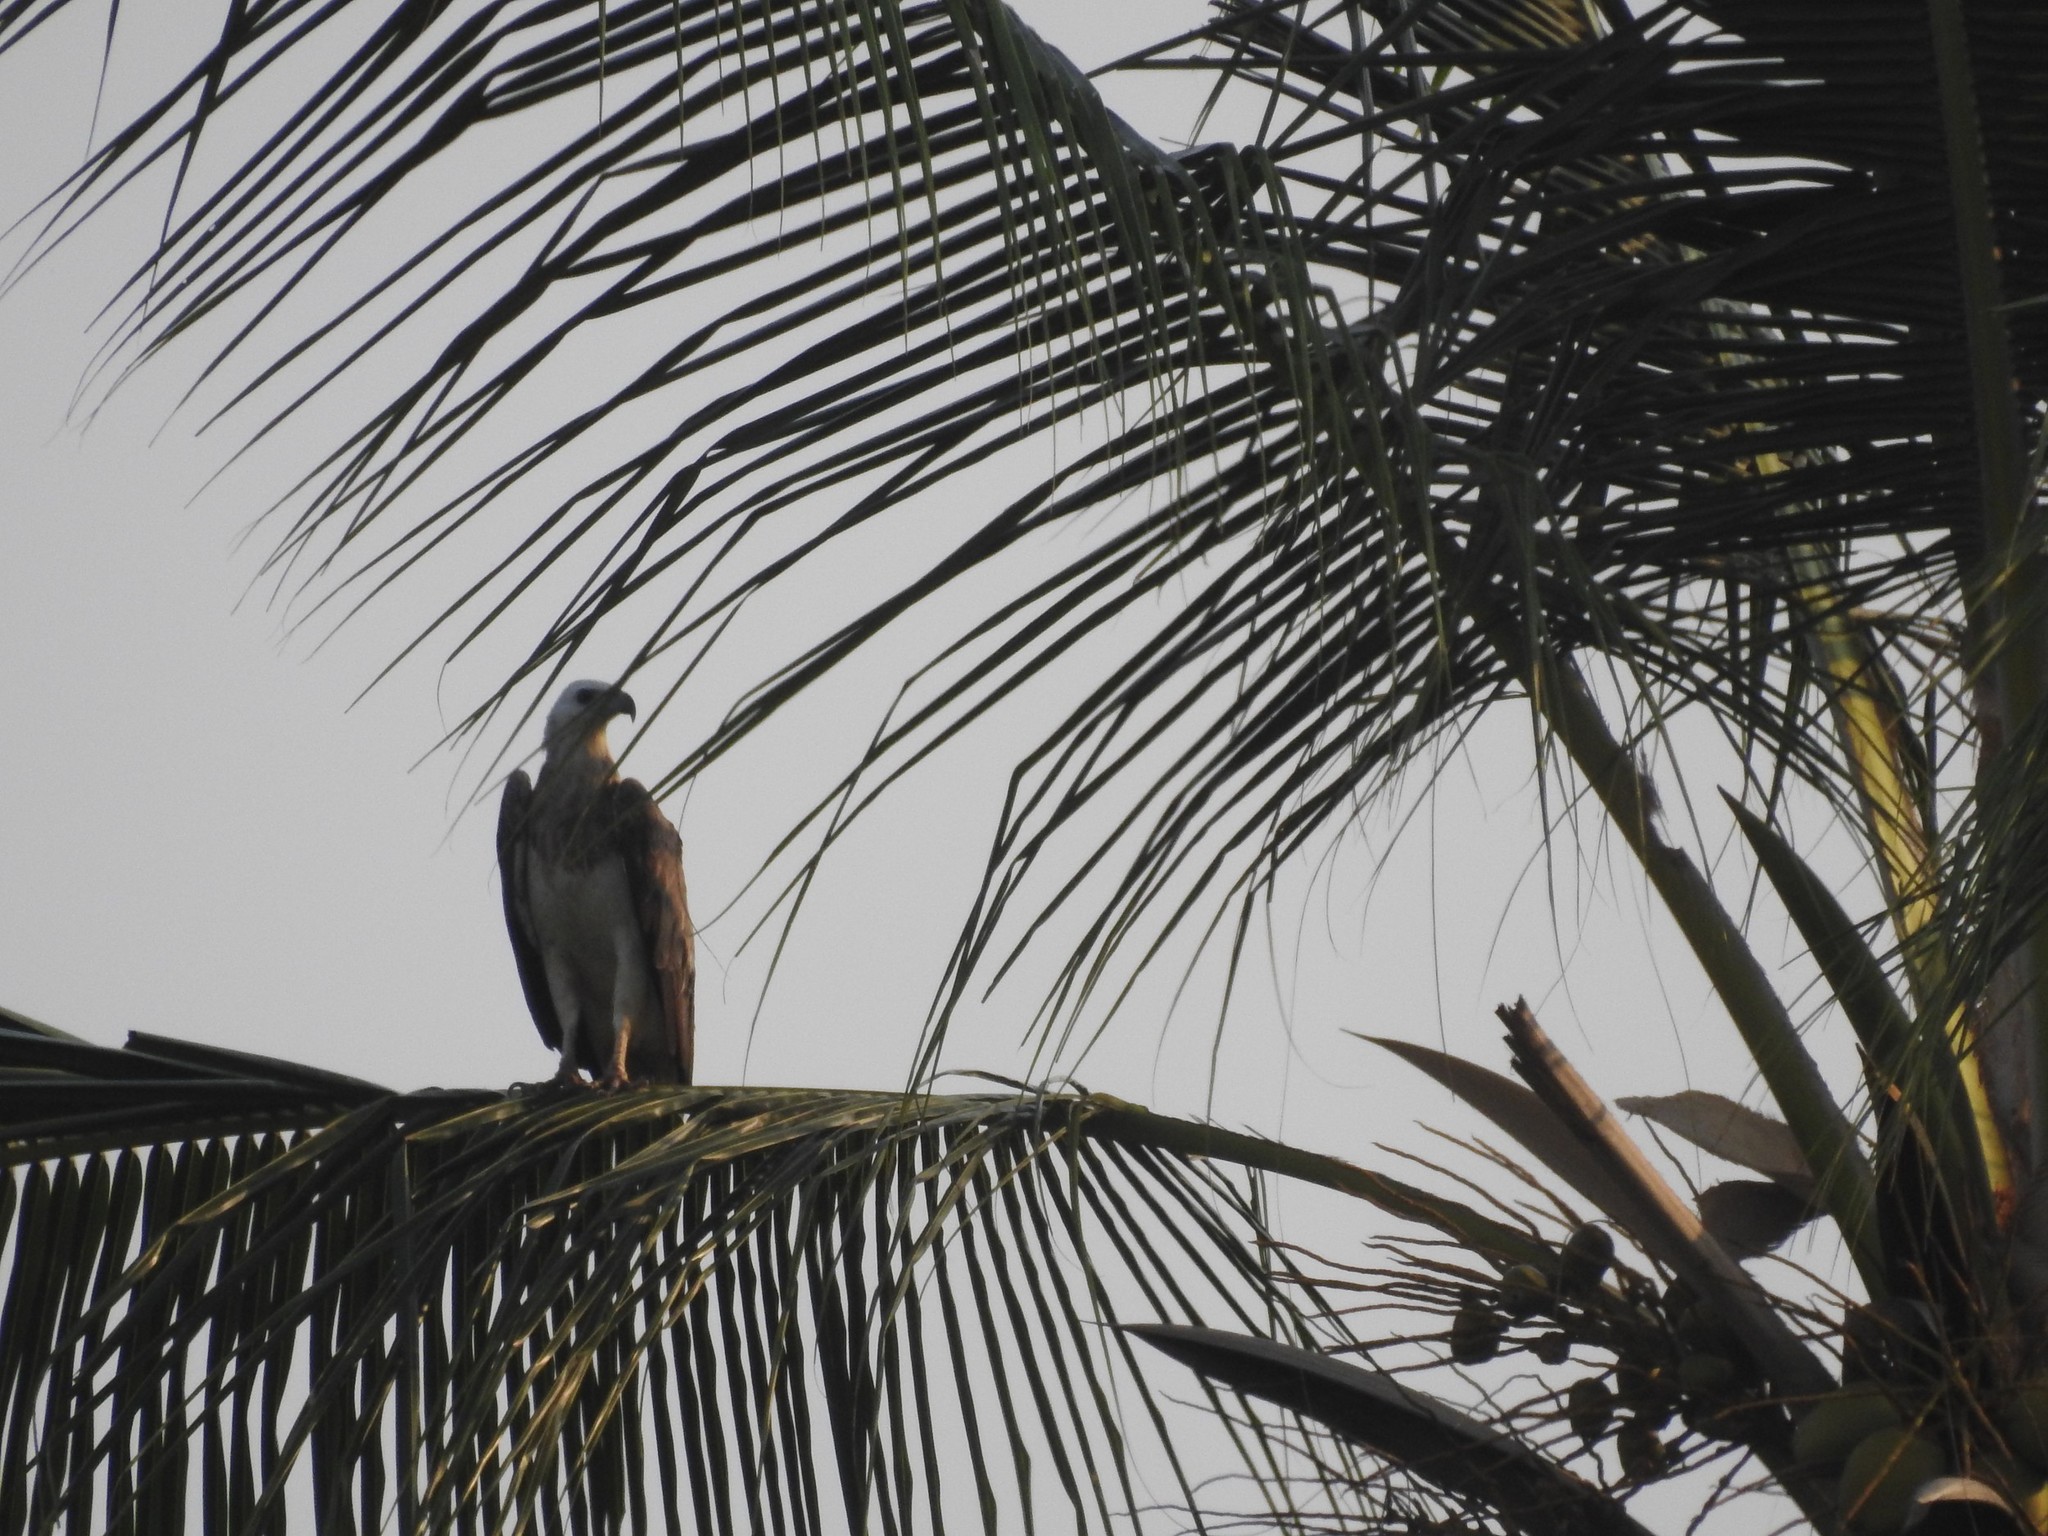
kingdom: Animalia
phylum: Chordata
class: Aves
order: Accipitriformes
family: Accipitridae
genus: Haliaeetus
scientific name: Haliaeetus leucogaster
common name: White-bellied sea eagle
